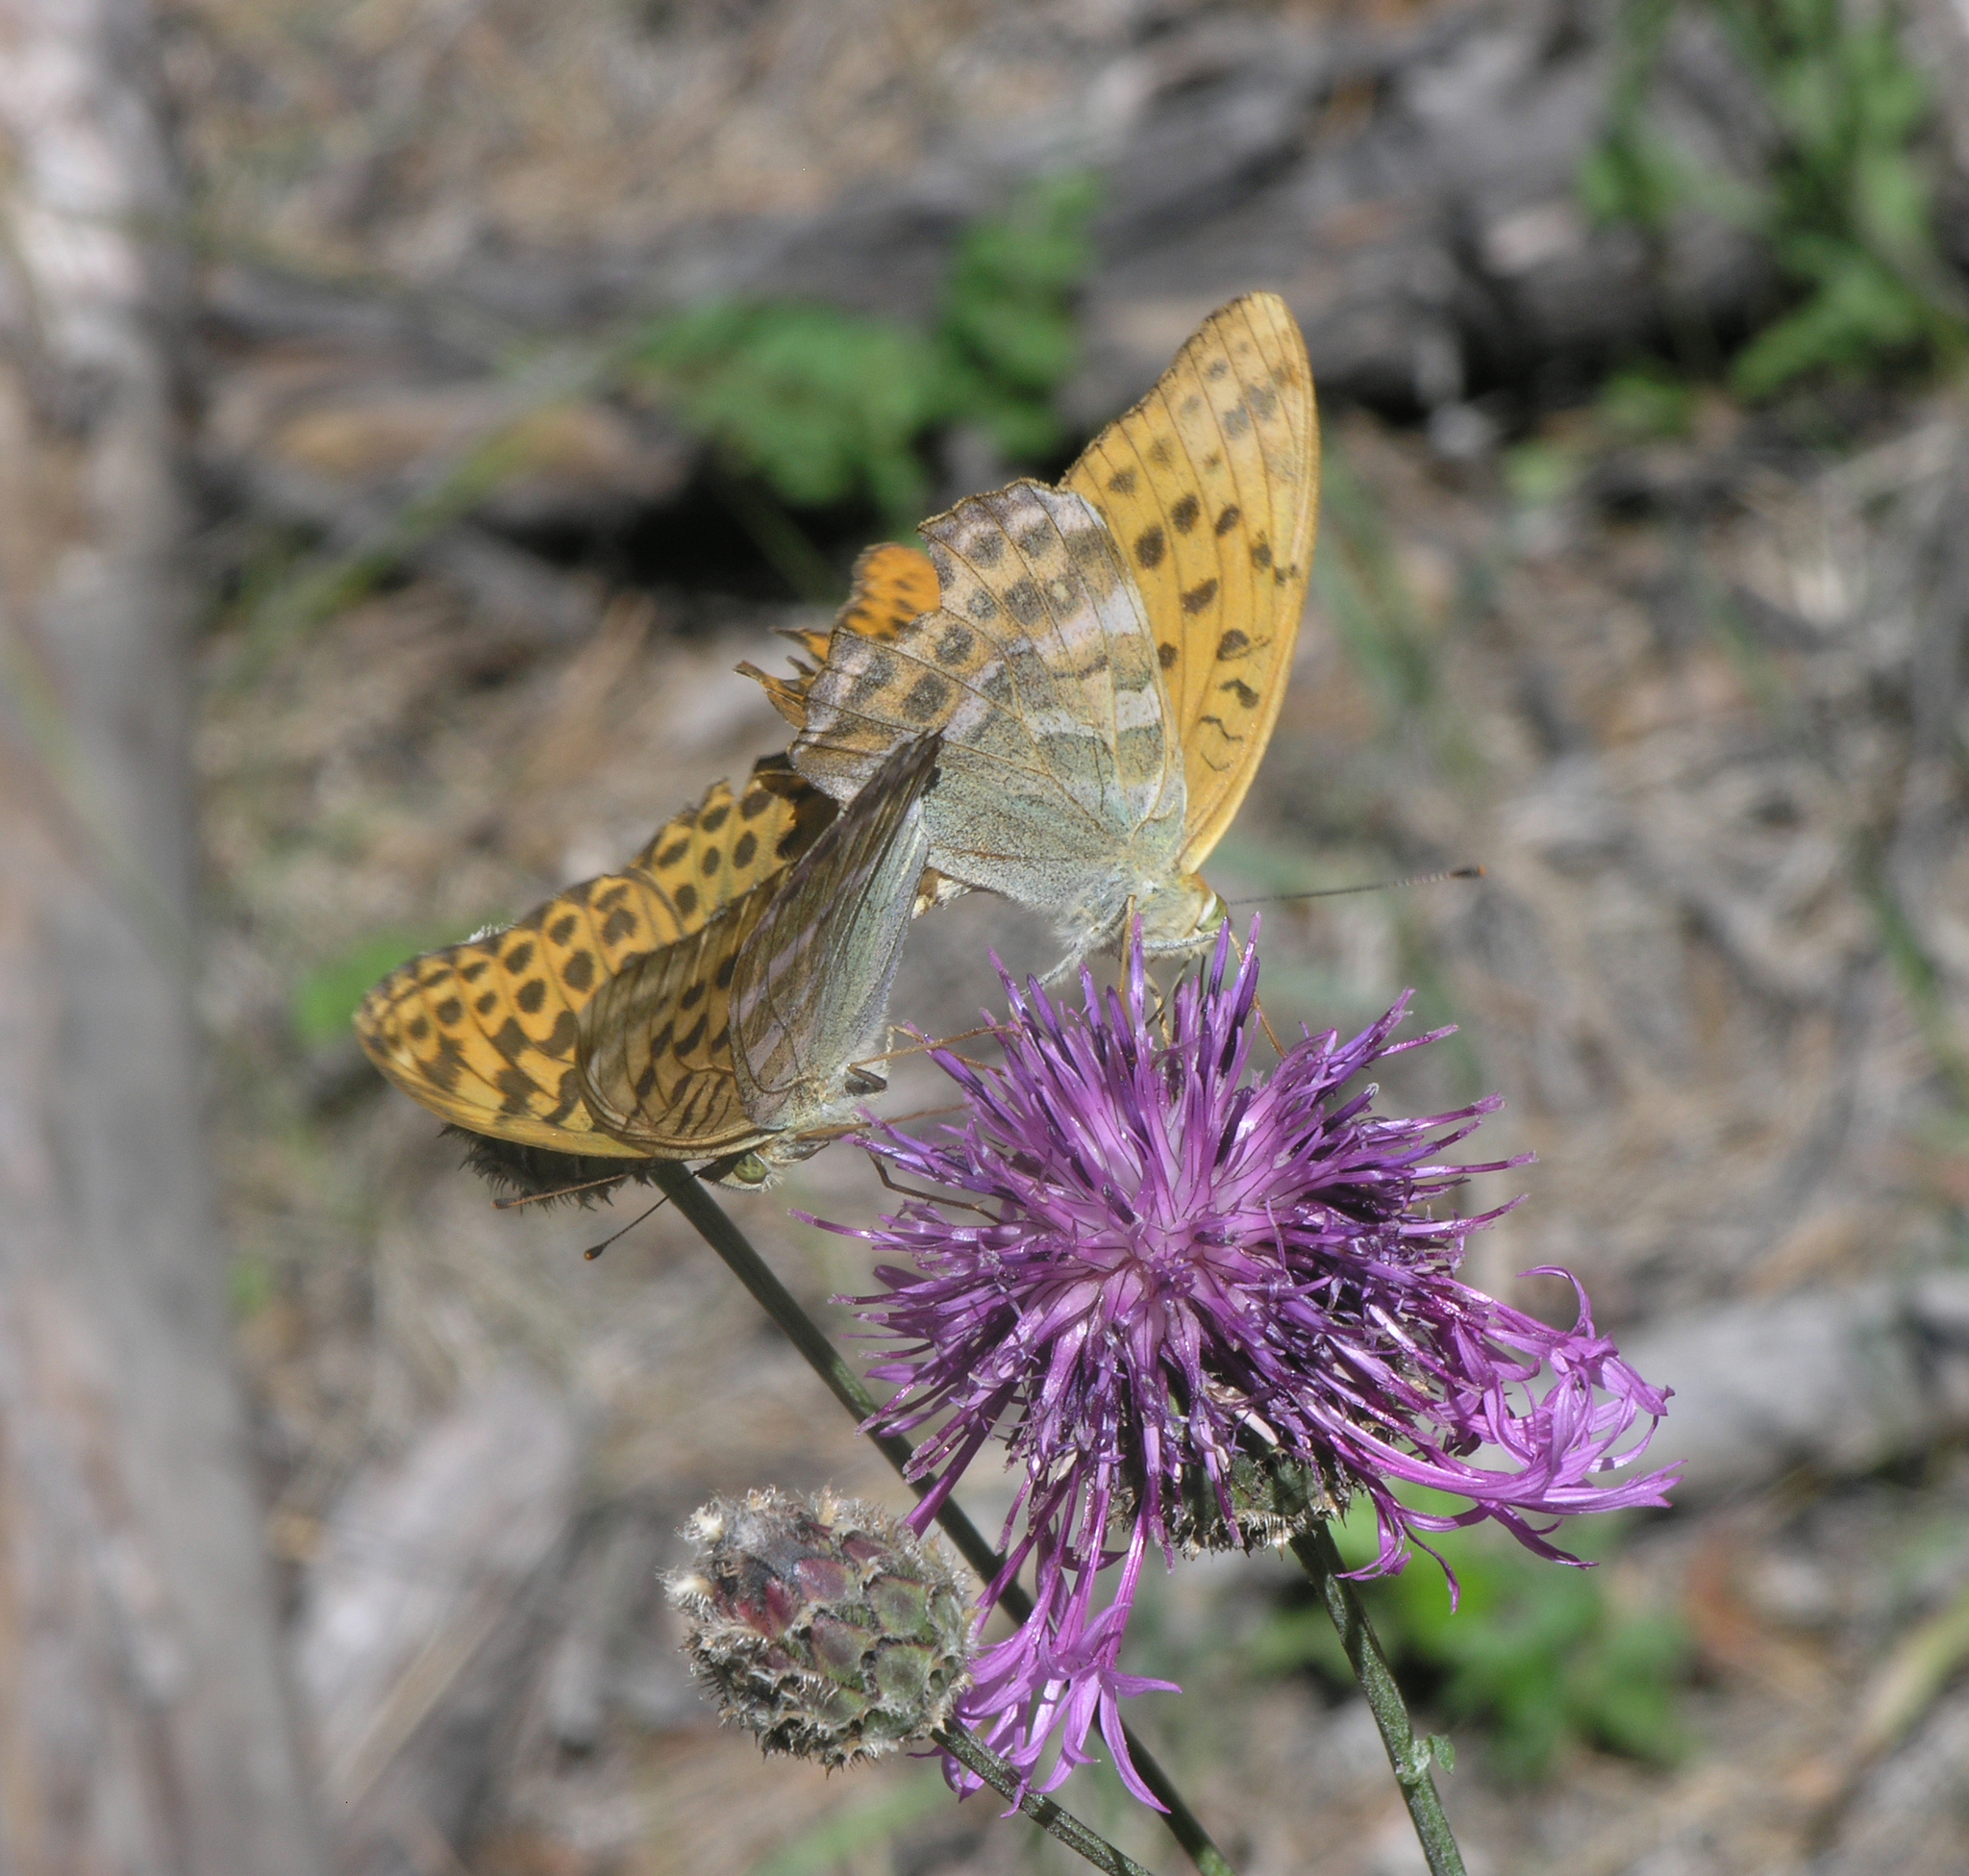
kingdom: Animalia
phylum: Arthropoda
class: Insecta
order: Lepidoptera
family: Nymphalidae
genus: Argynnis
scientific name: Argynnis paphia
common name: Silver-washed fritillary
